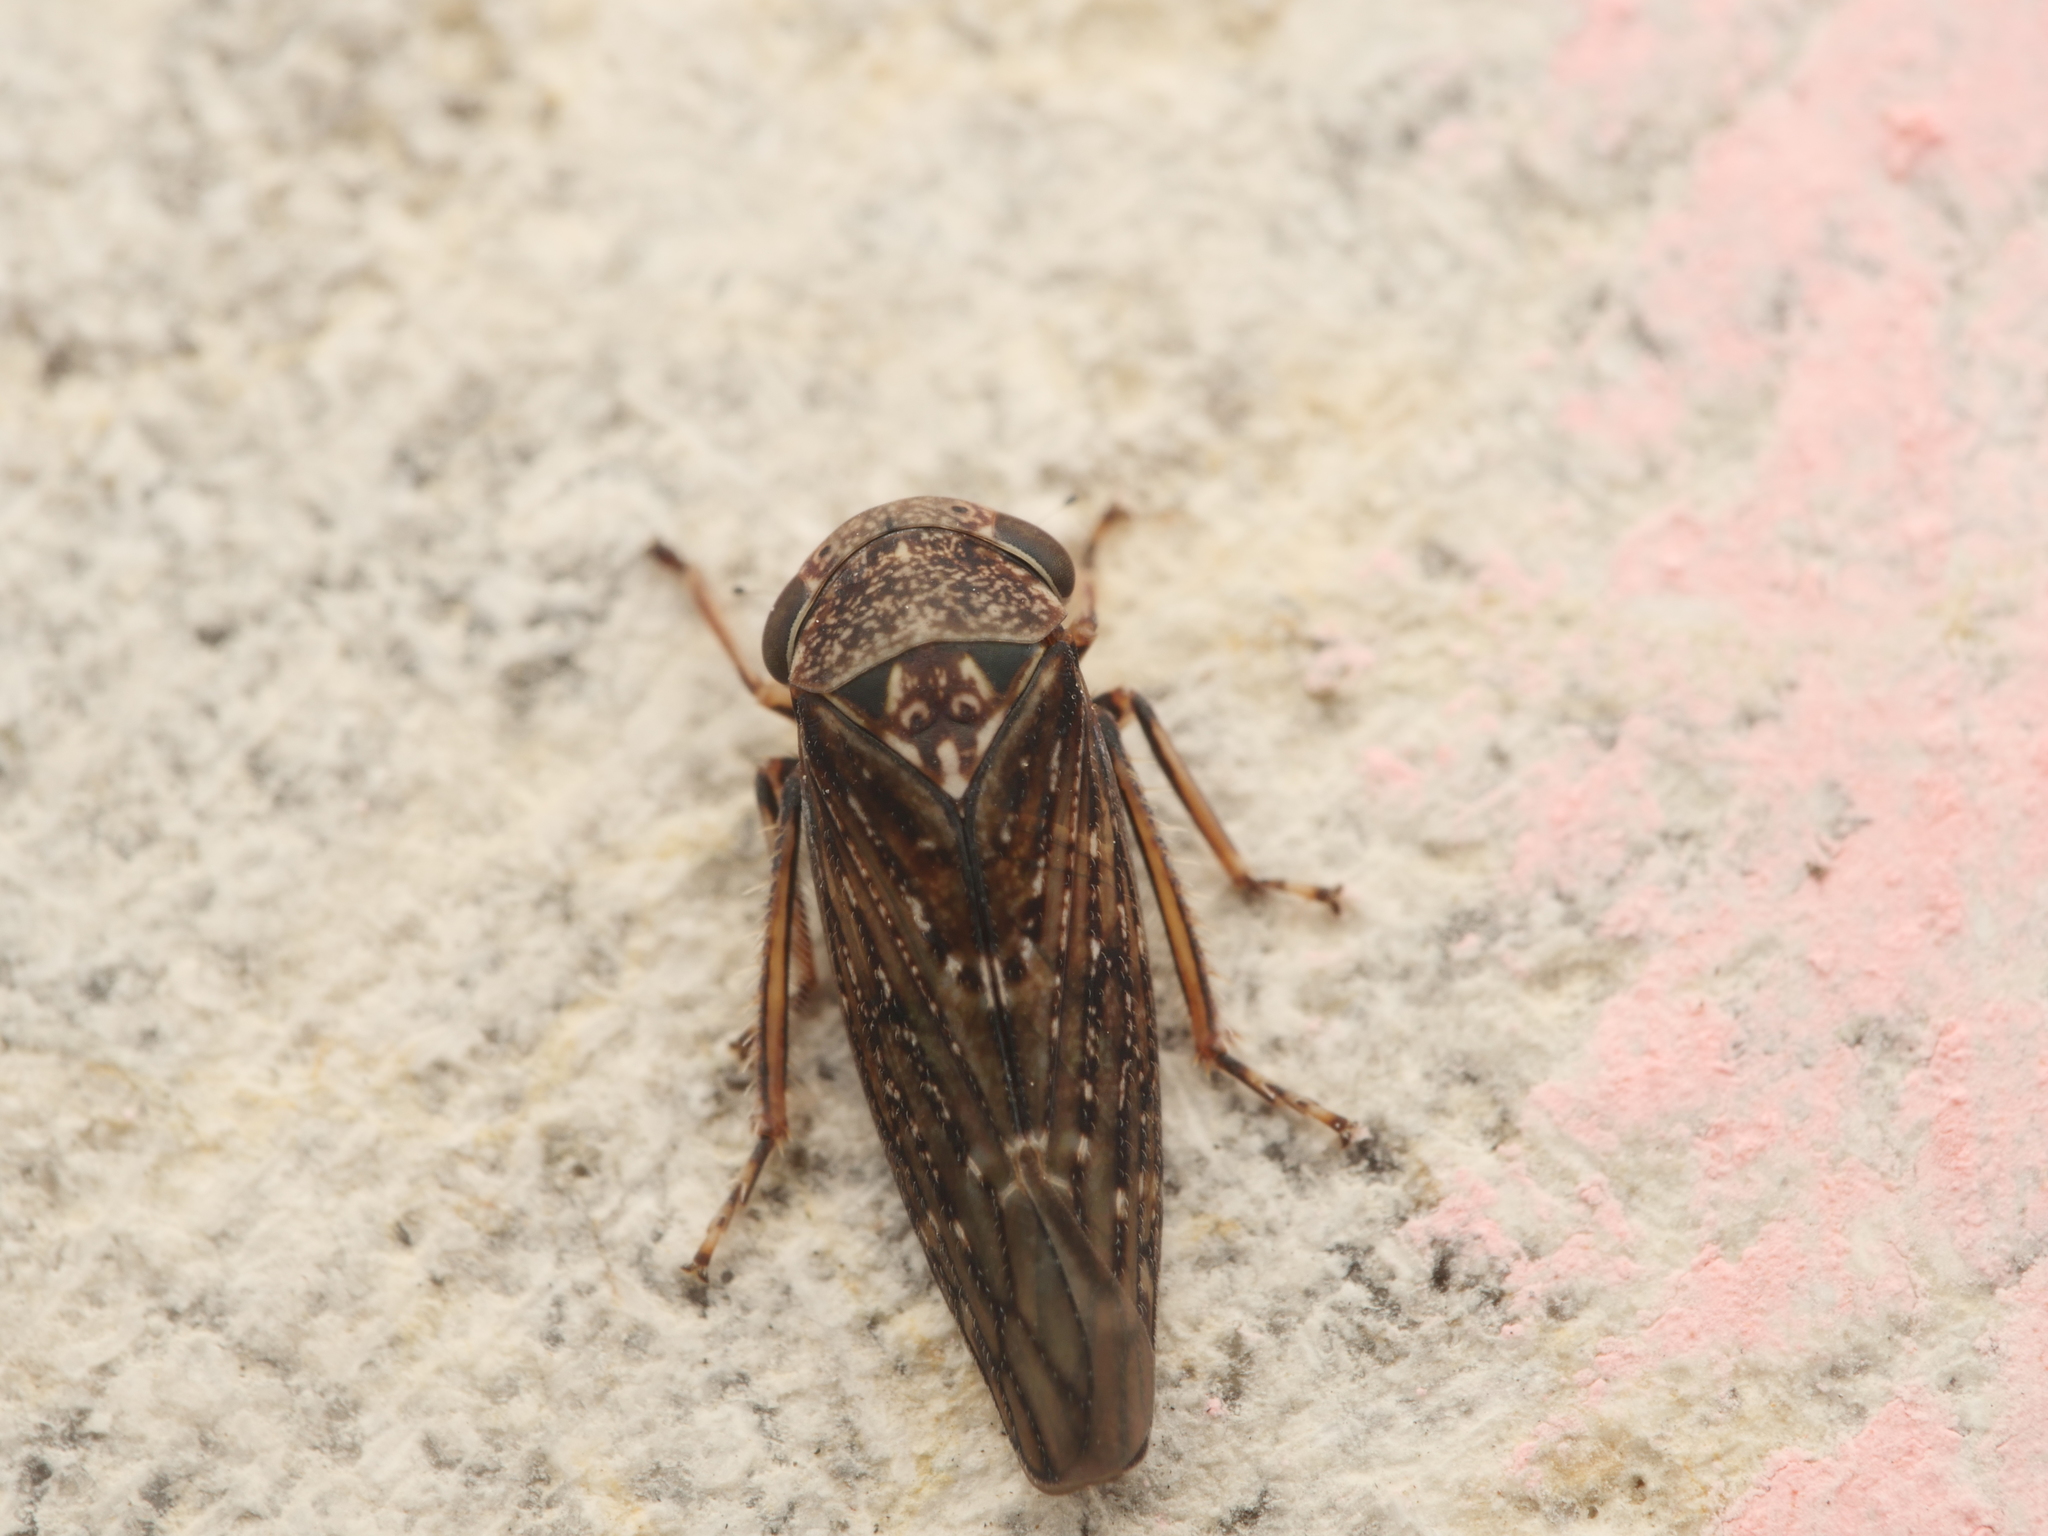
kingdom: Animalia
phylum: Arthropoda
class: Insecta
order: Hemiptera
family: Cicadellidae
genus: Acericerus
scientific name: Acericerus ribauti
